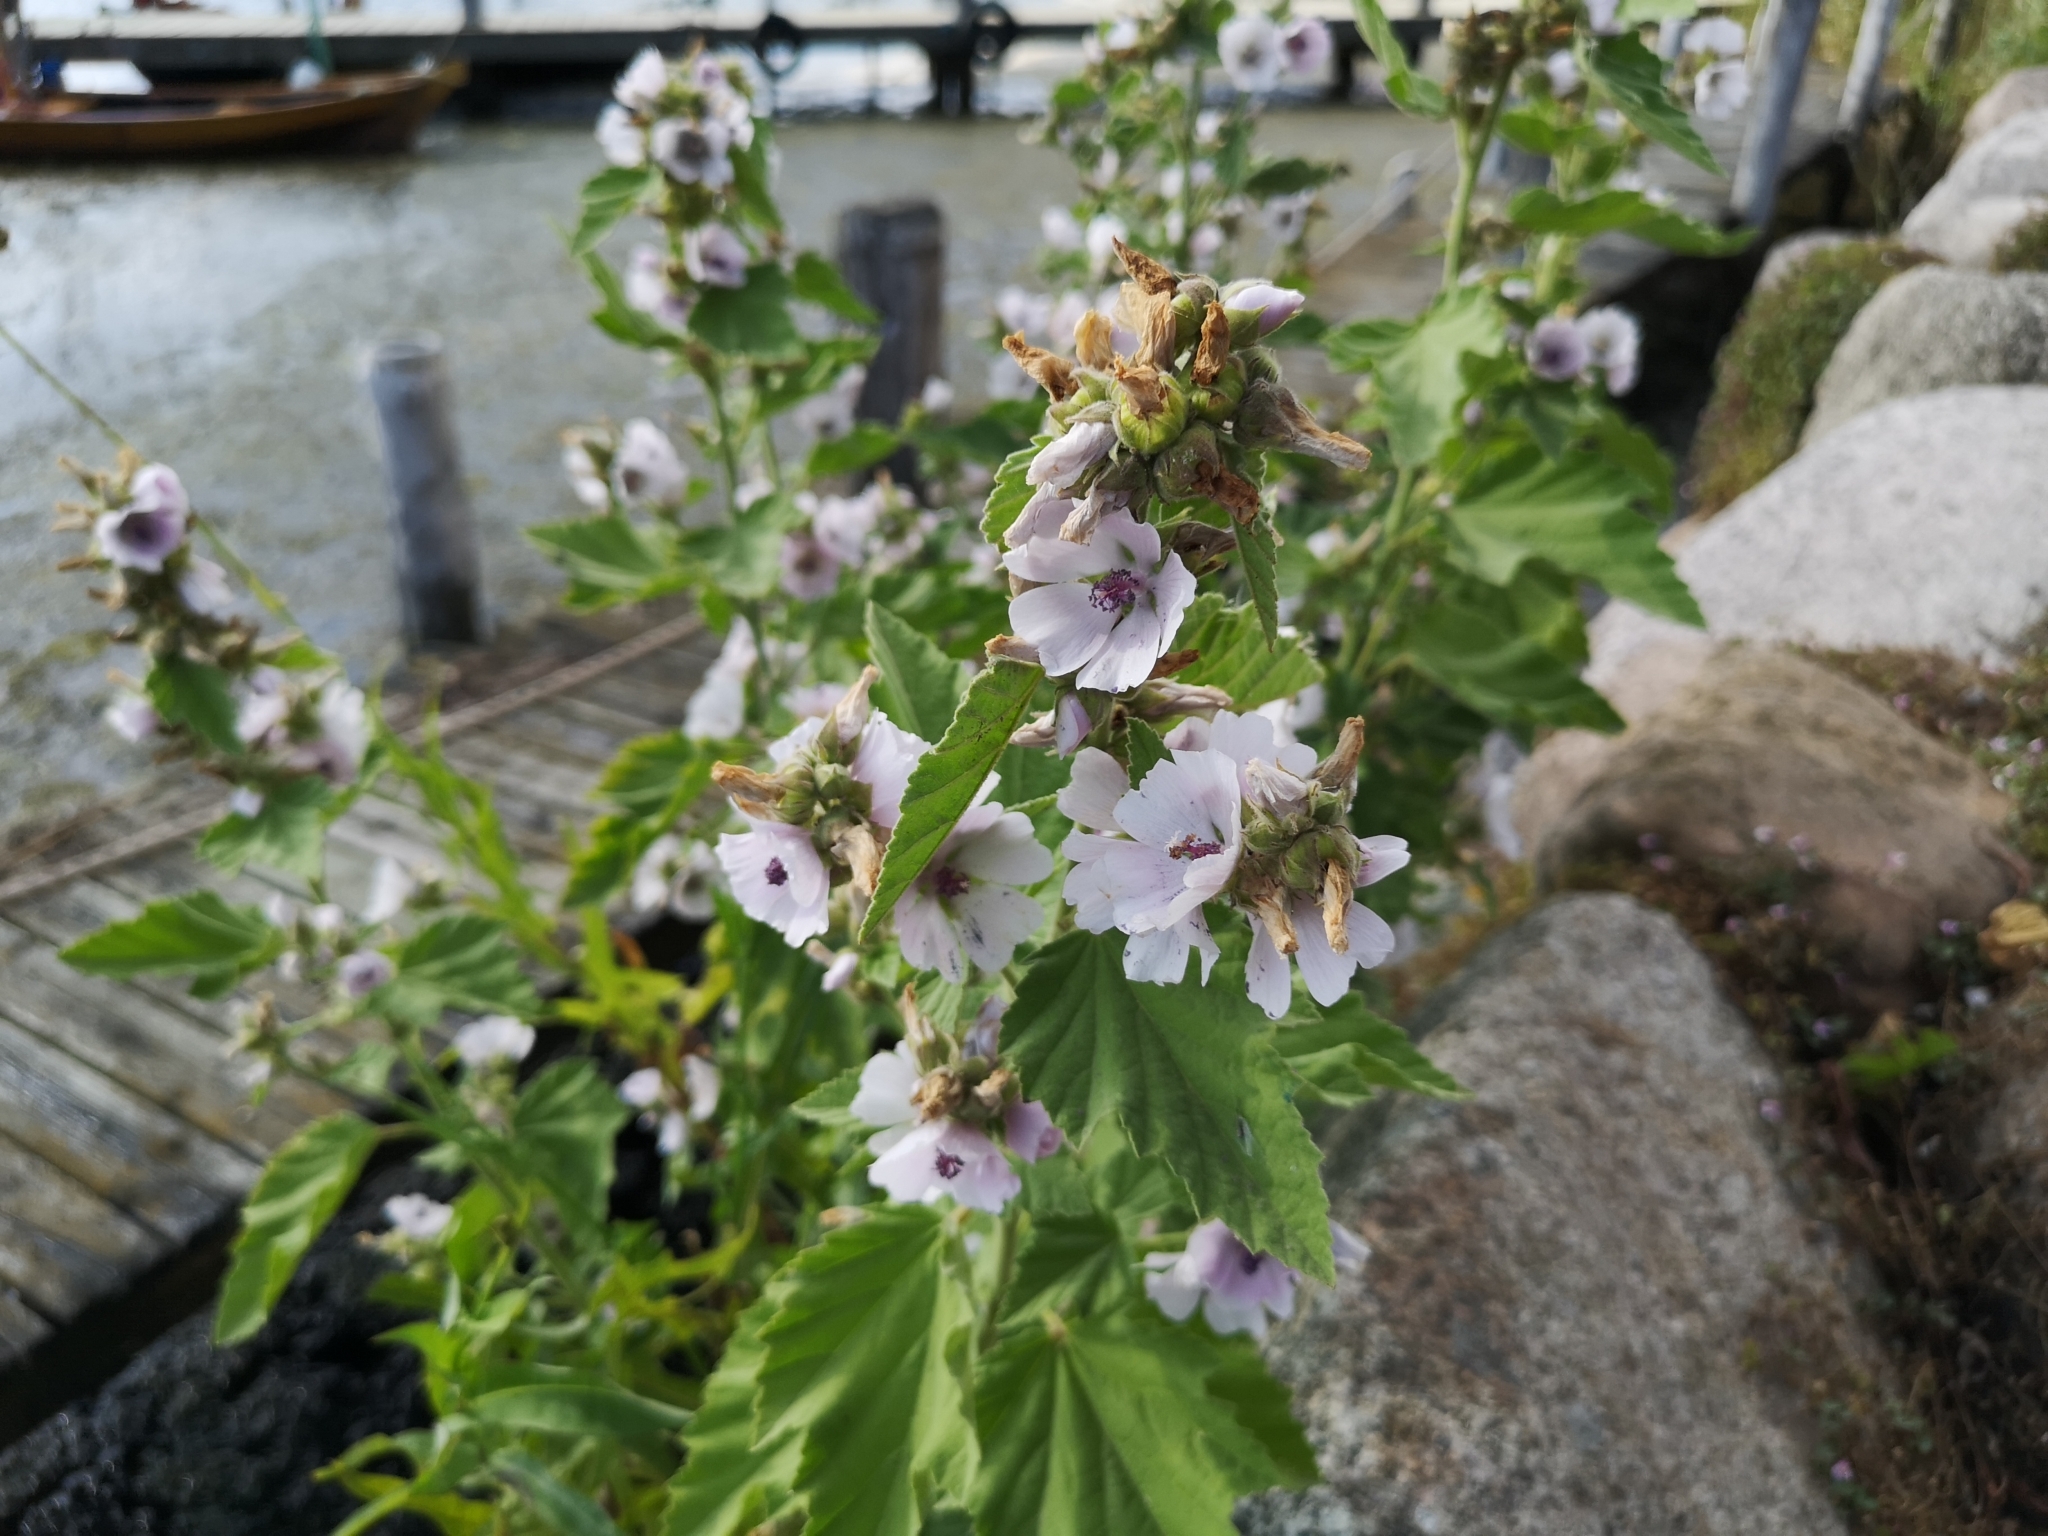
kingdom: Plantae
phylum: Tracheophyta
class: Magnoliopsida
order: Malvales
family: Malvaceae
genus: Althaea
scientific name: Althaea officinalis
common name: Marsh-mallow
